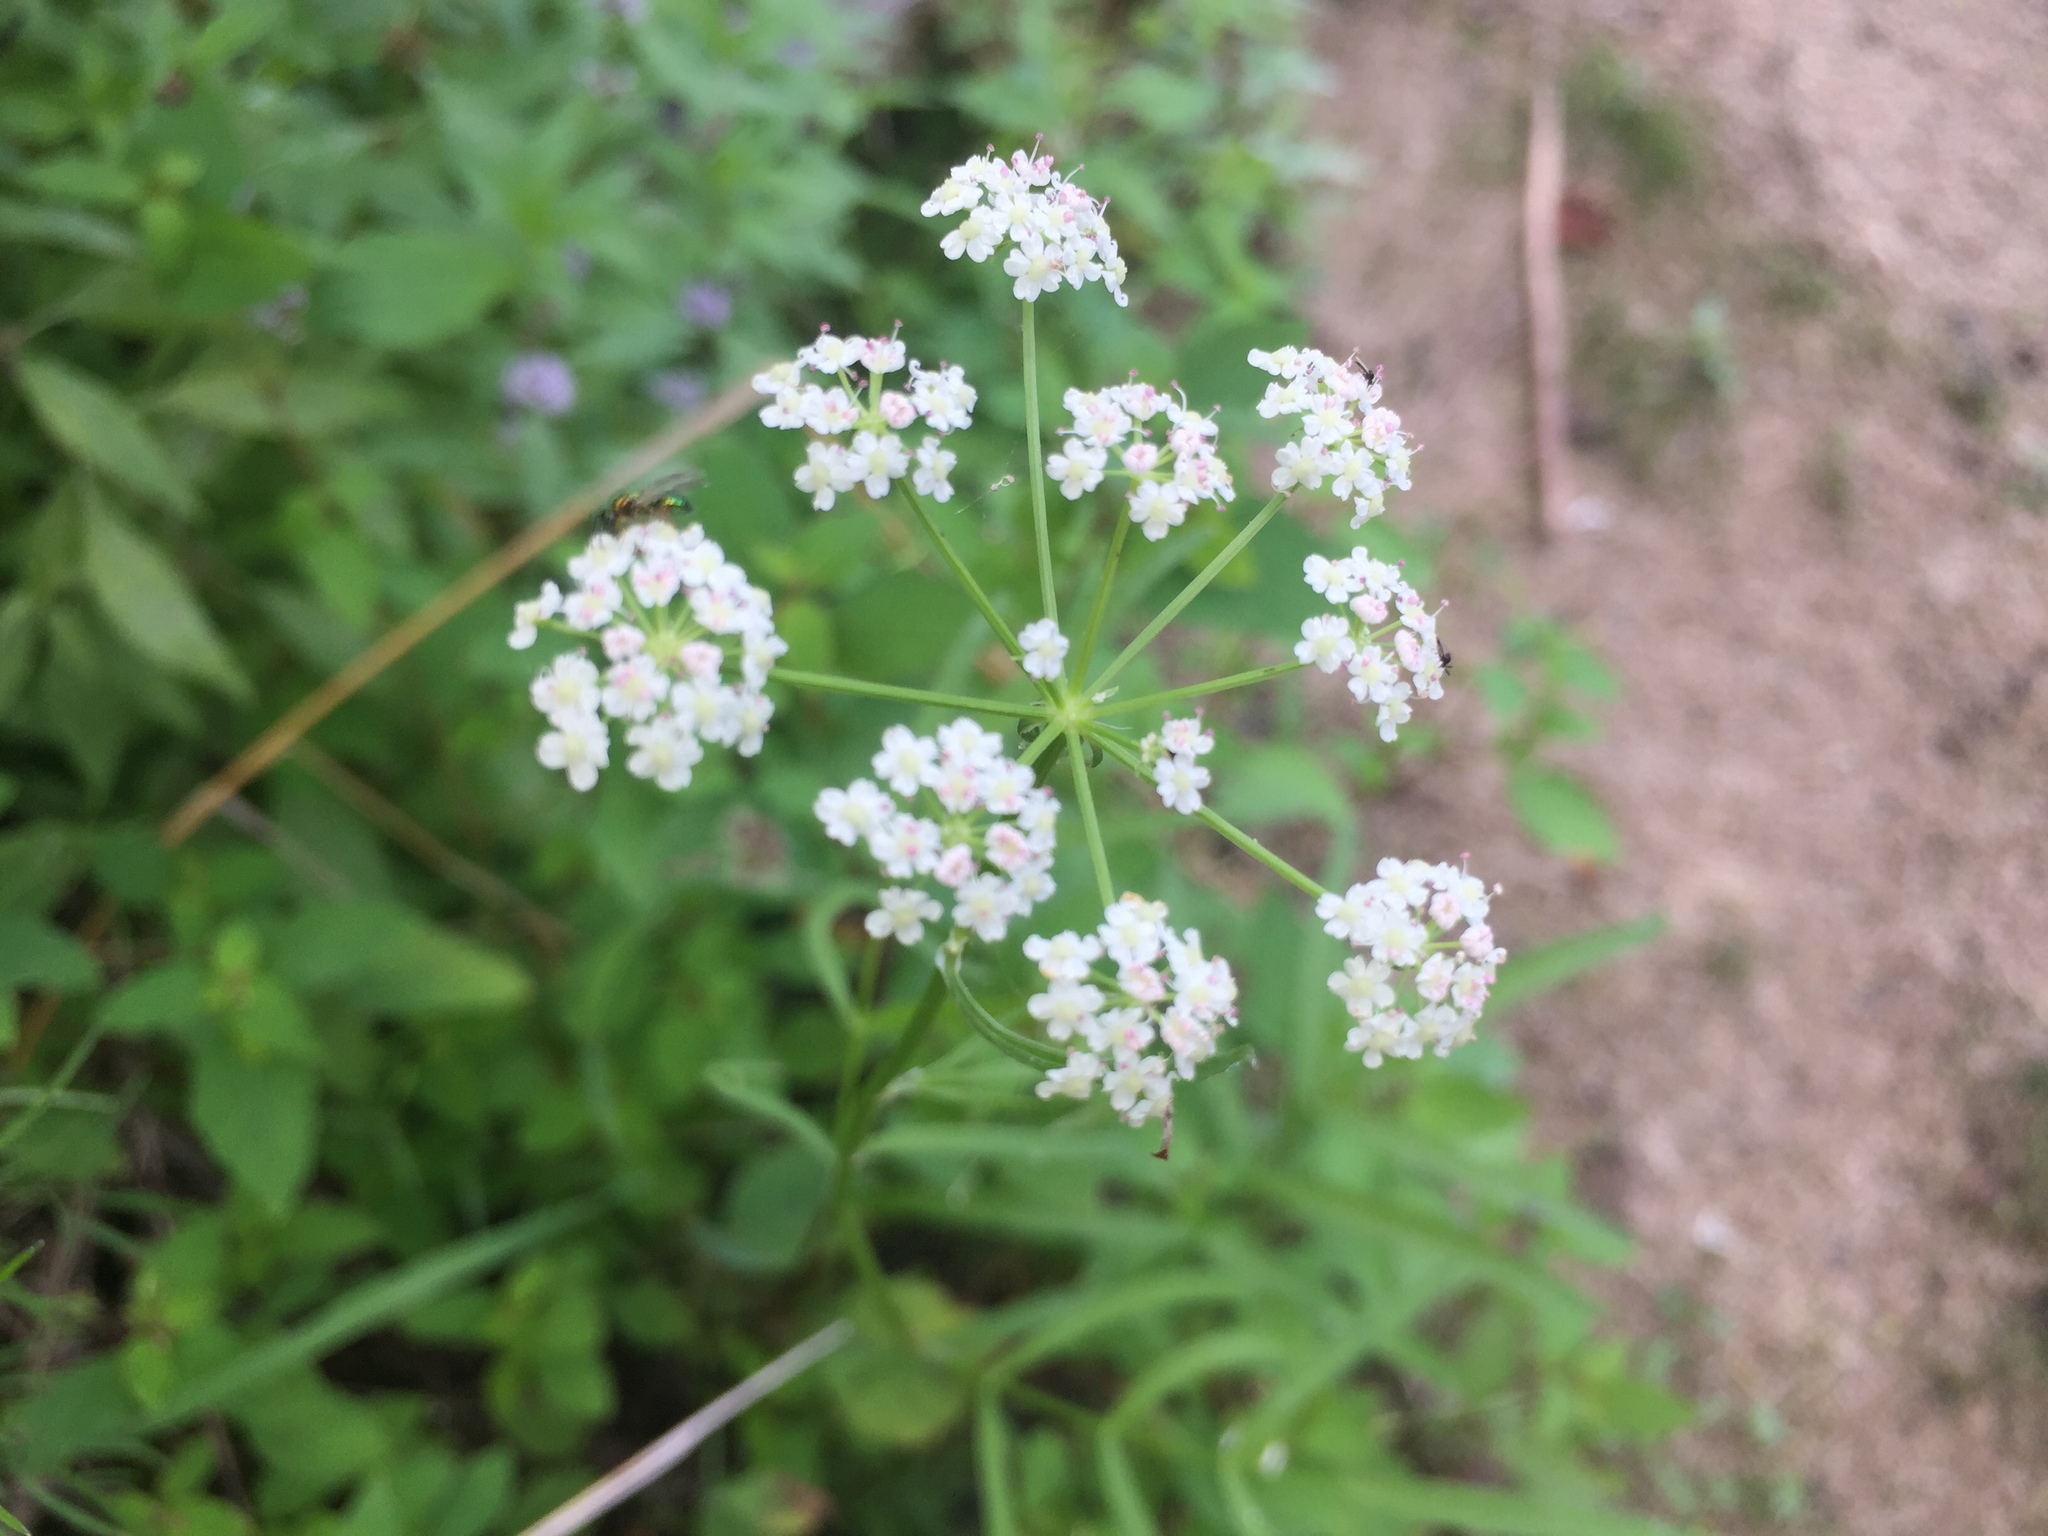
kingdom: Plantae
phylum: Tracheophyta
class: Magnoliopsida
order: Apiales
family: Apiaceae
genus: Cicuta
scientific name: Cicuta bulbifera
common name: Bulb-bearing water-hemlock
